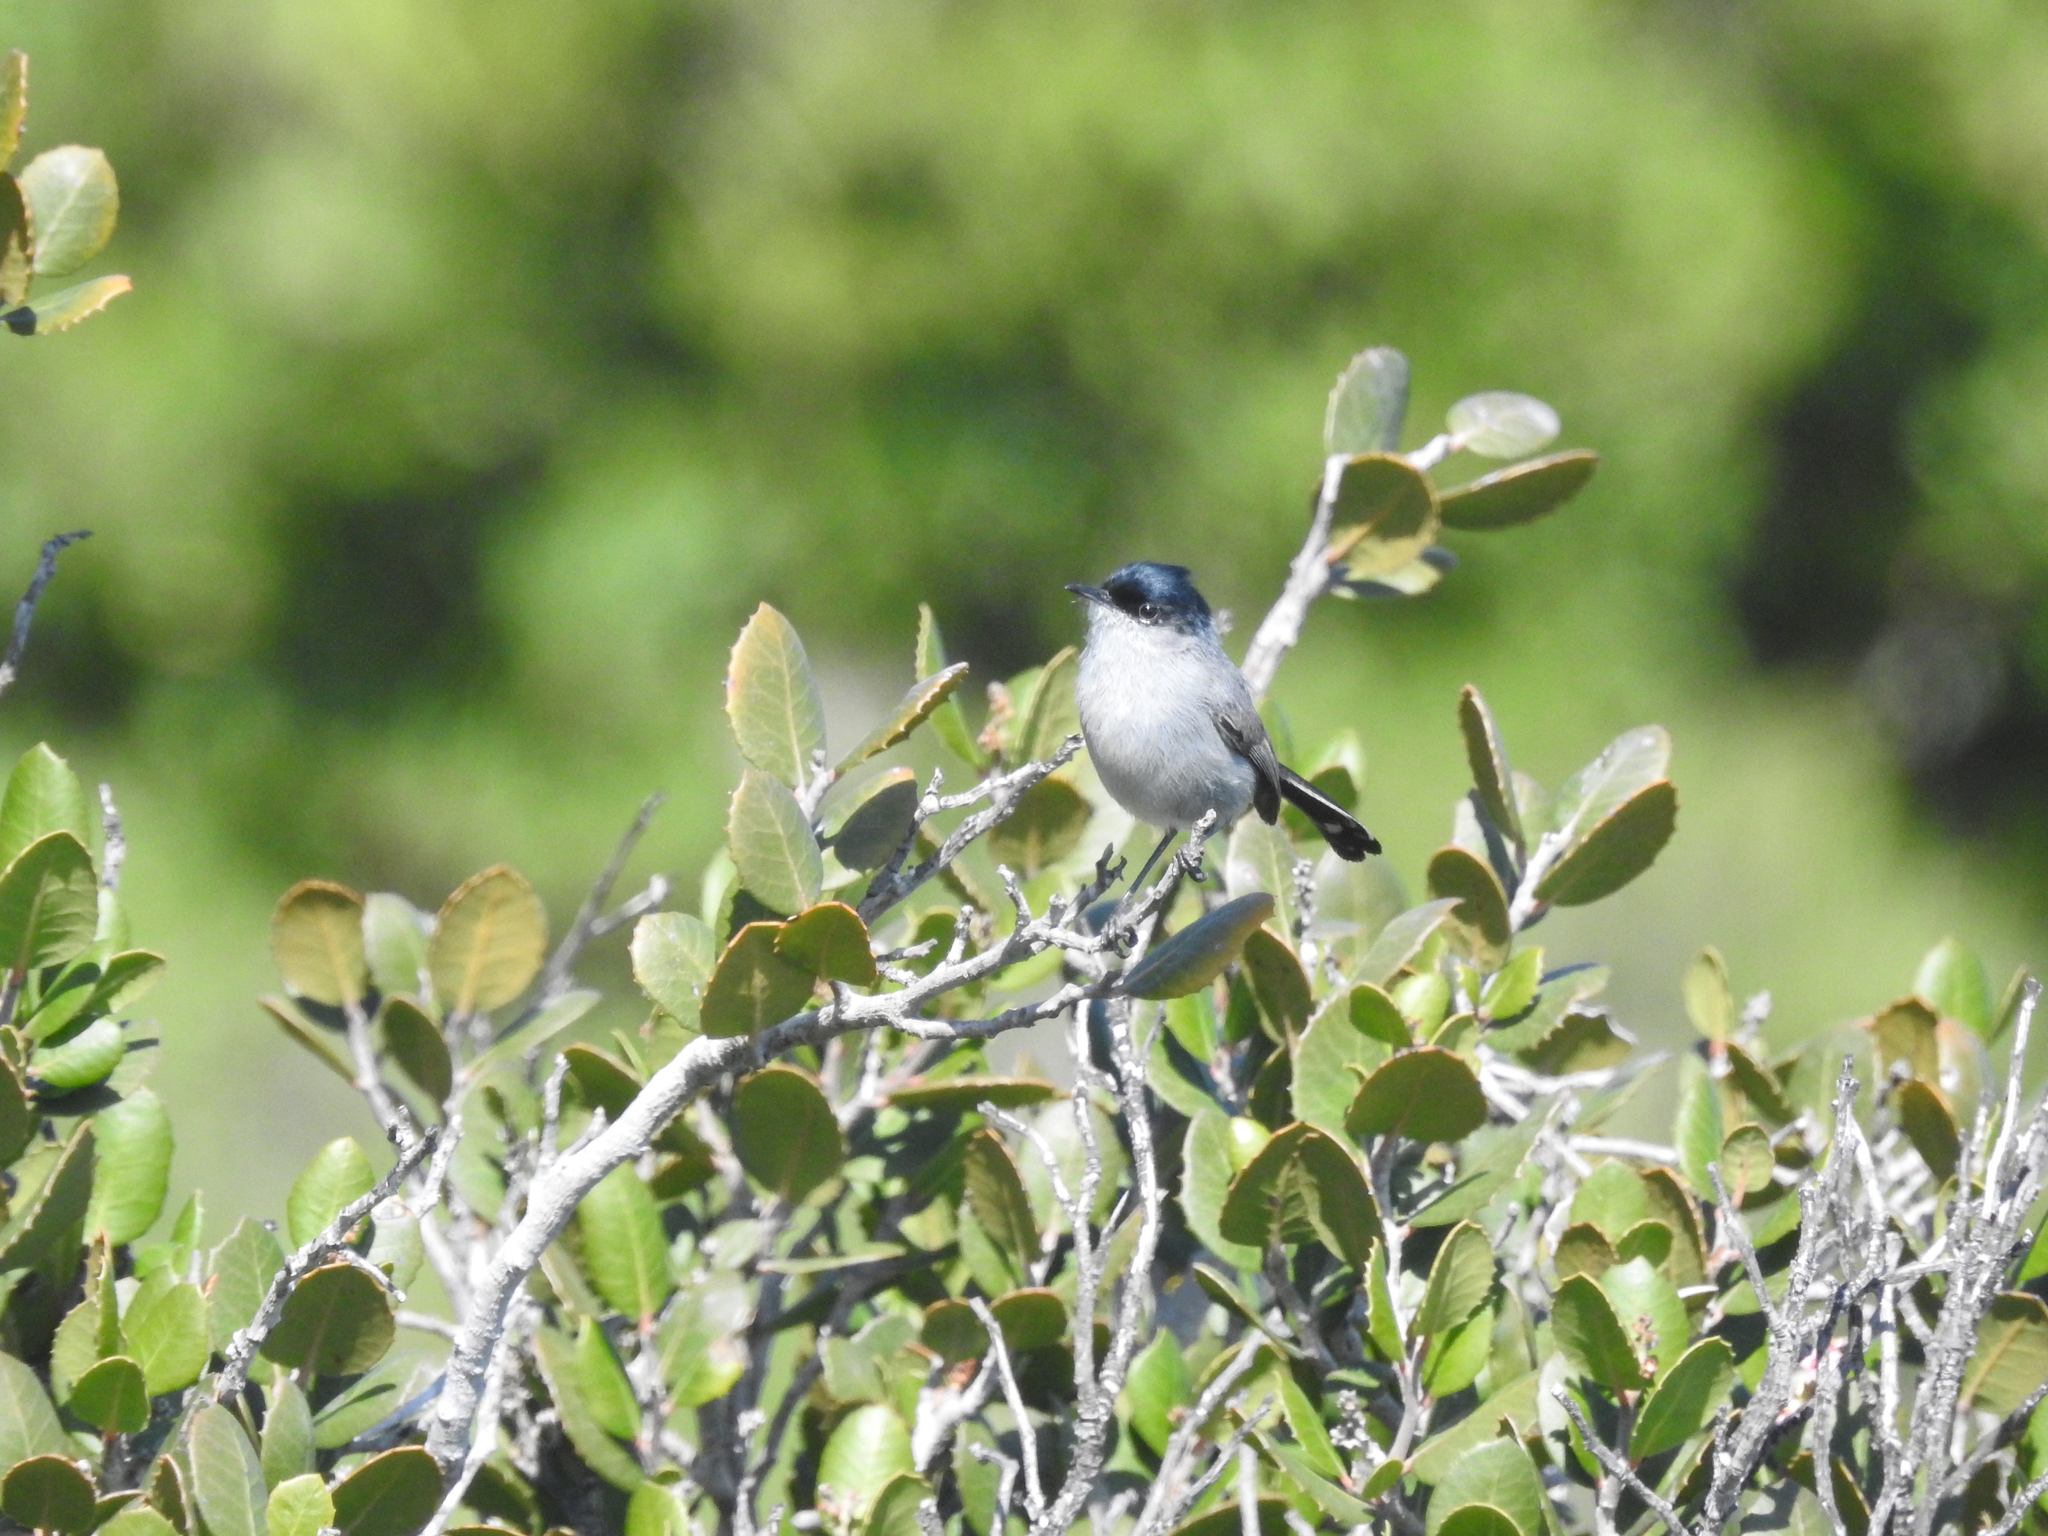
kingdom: Animalia
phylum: Chordata
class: Aves
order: Passeriformes
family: Polioptilidae
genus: Polioptila
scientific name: Polioptila californica
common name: California gnatcatcher
